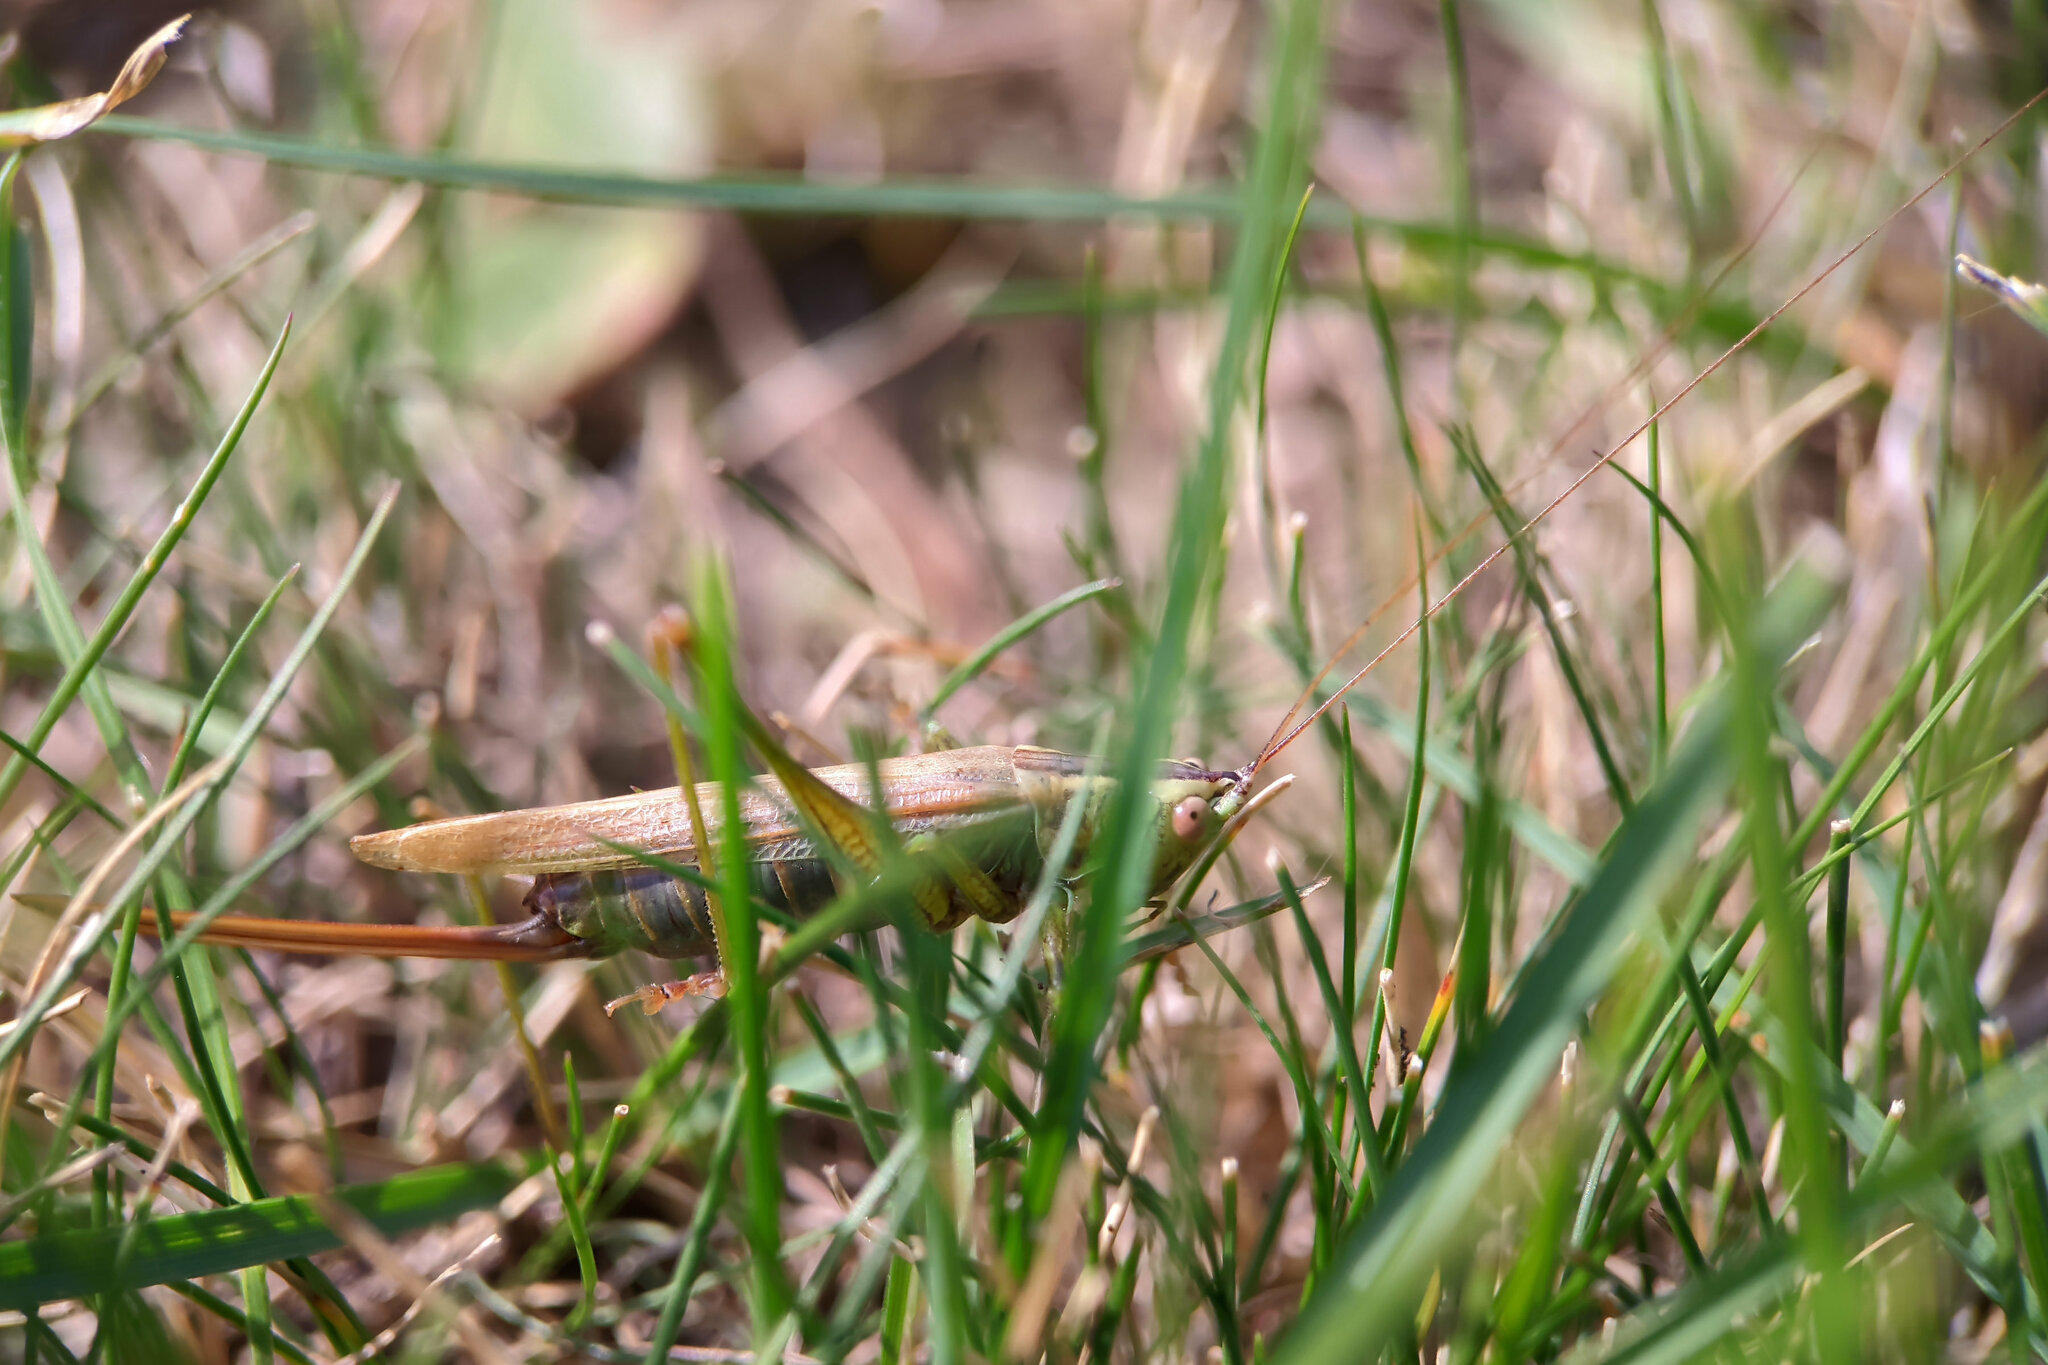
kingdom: Animalia
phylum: Arthropoda
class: Insecta
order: Orthoptera
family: Tettigoniidae
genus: Conocephalus
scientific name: Conocephalus fuscus
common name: Long-winged conehead
